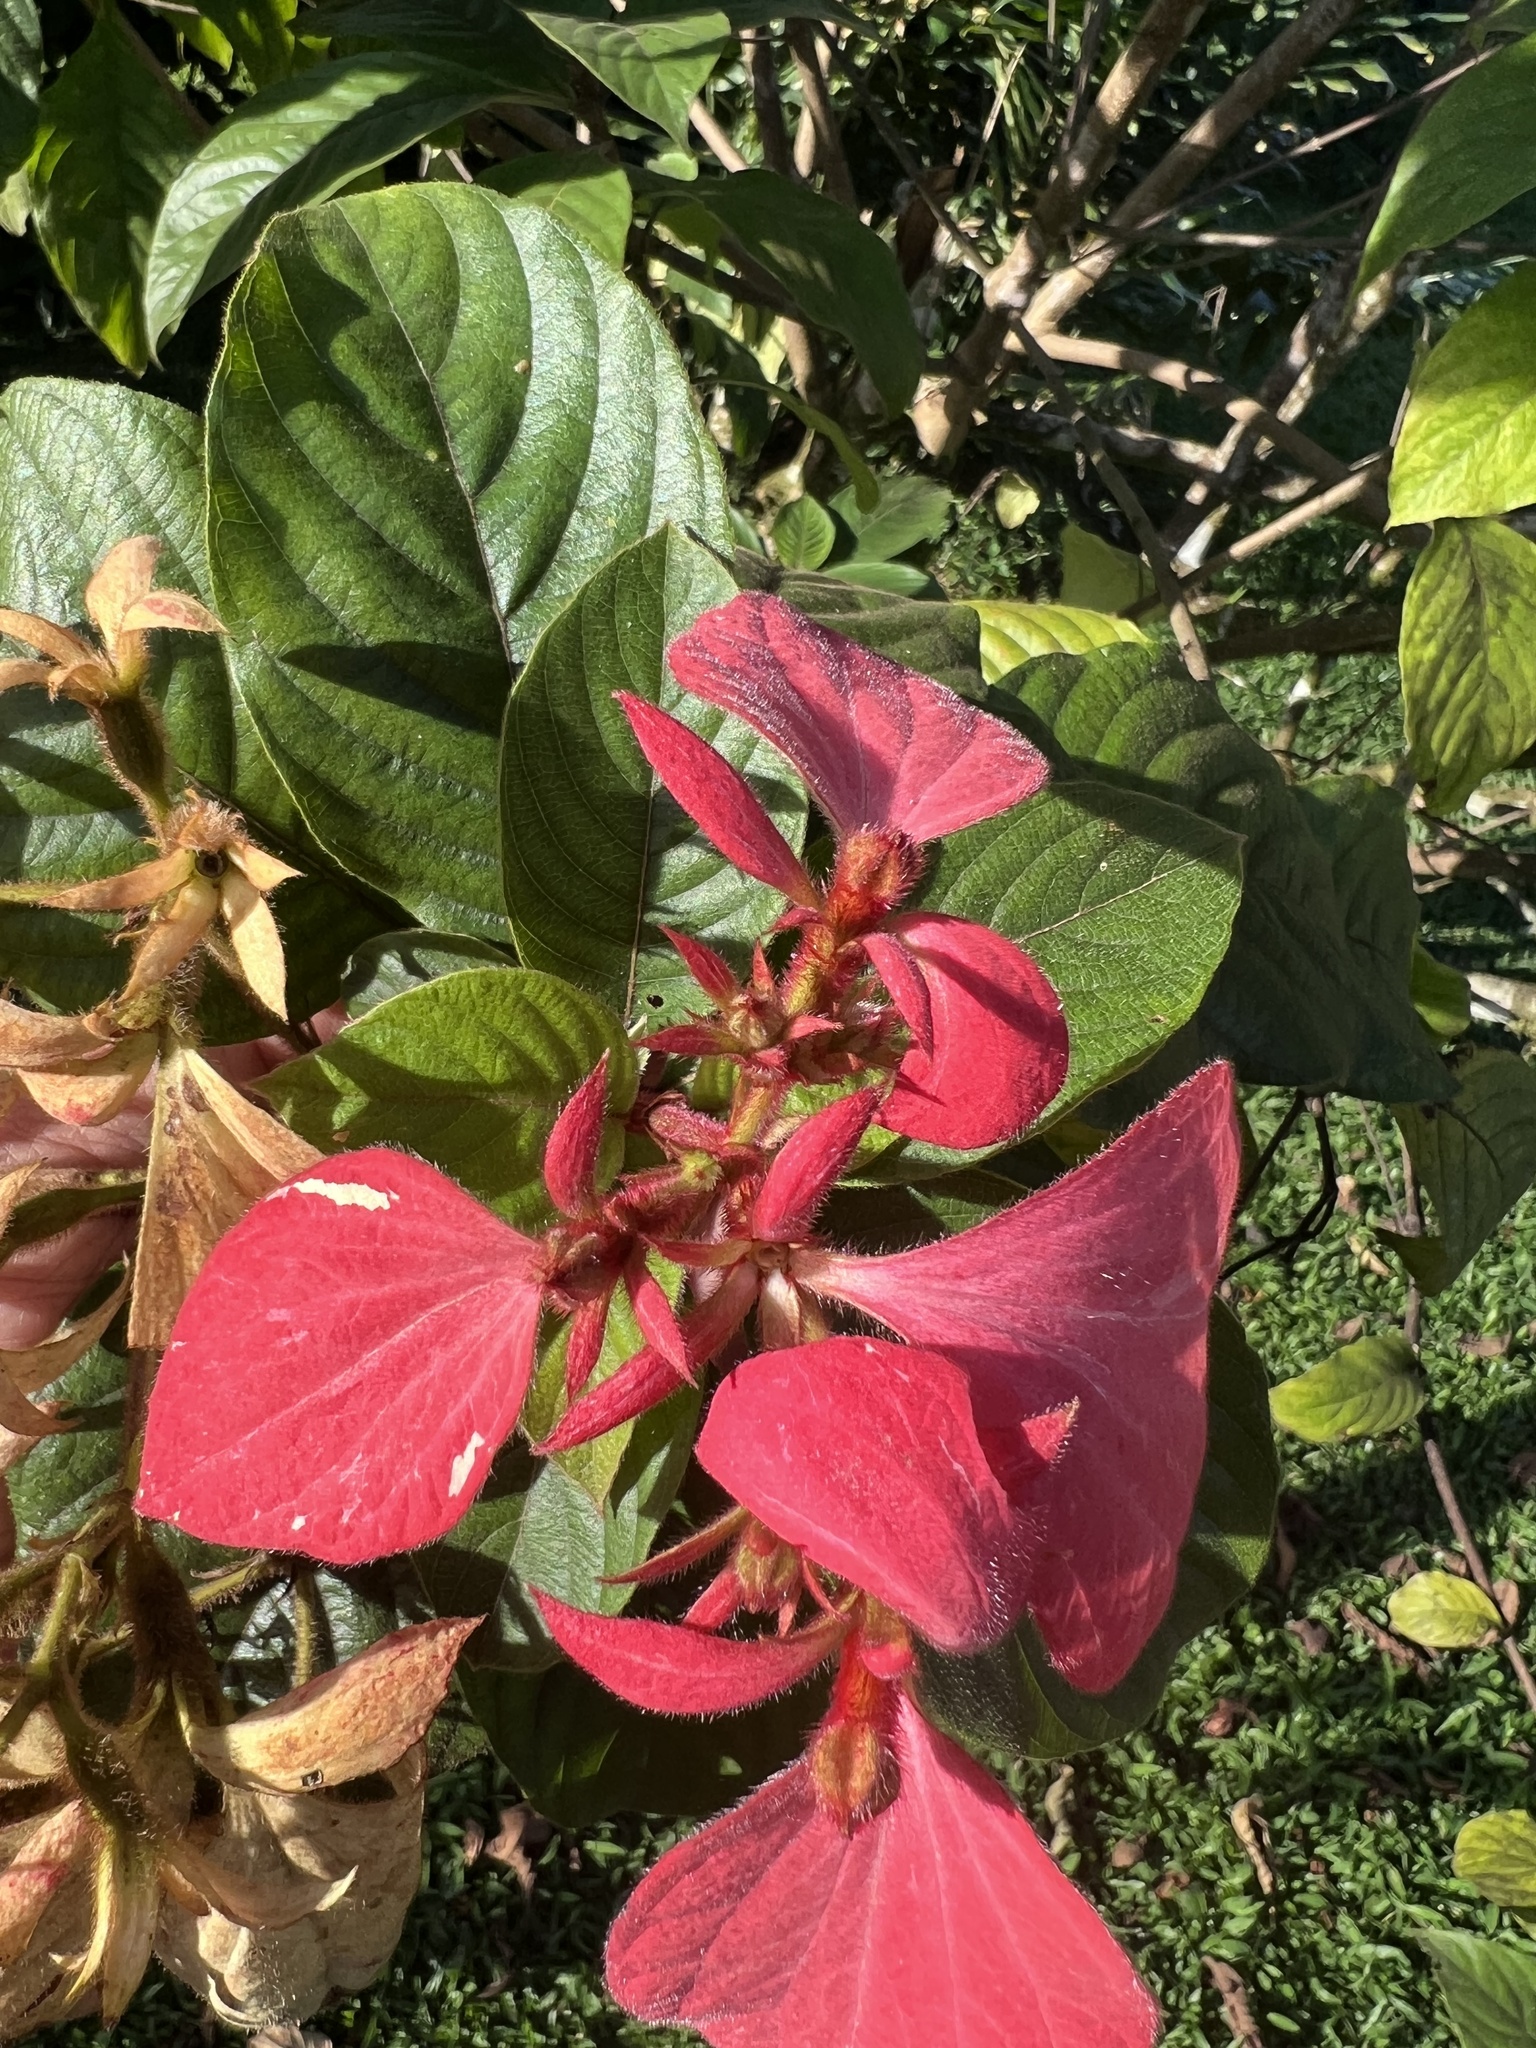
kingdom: Plantae
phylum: Tracheophyta
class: Magnoliopsida
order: Gentianales
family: Rubiaceae
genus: Mussaenda
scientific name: Mussaenda erythrophylla
